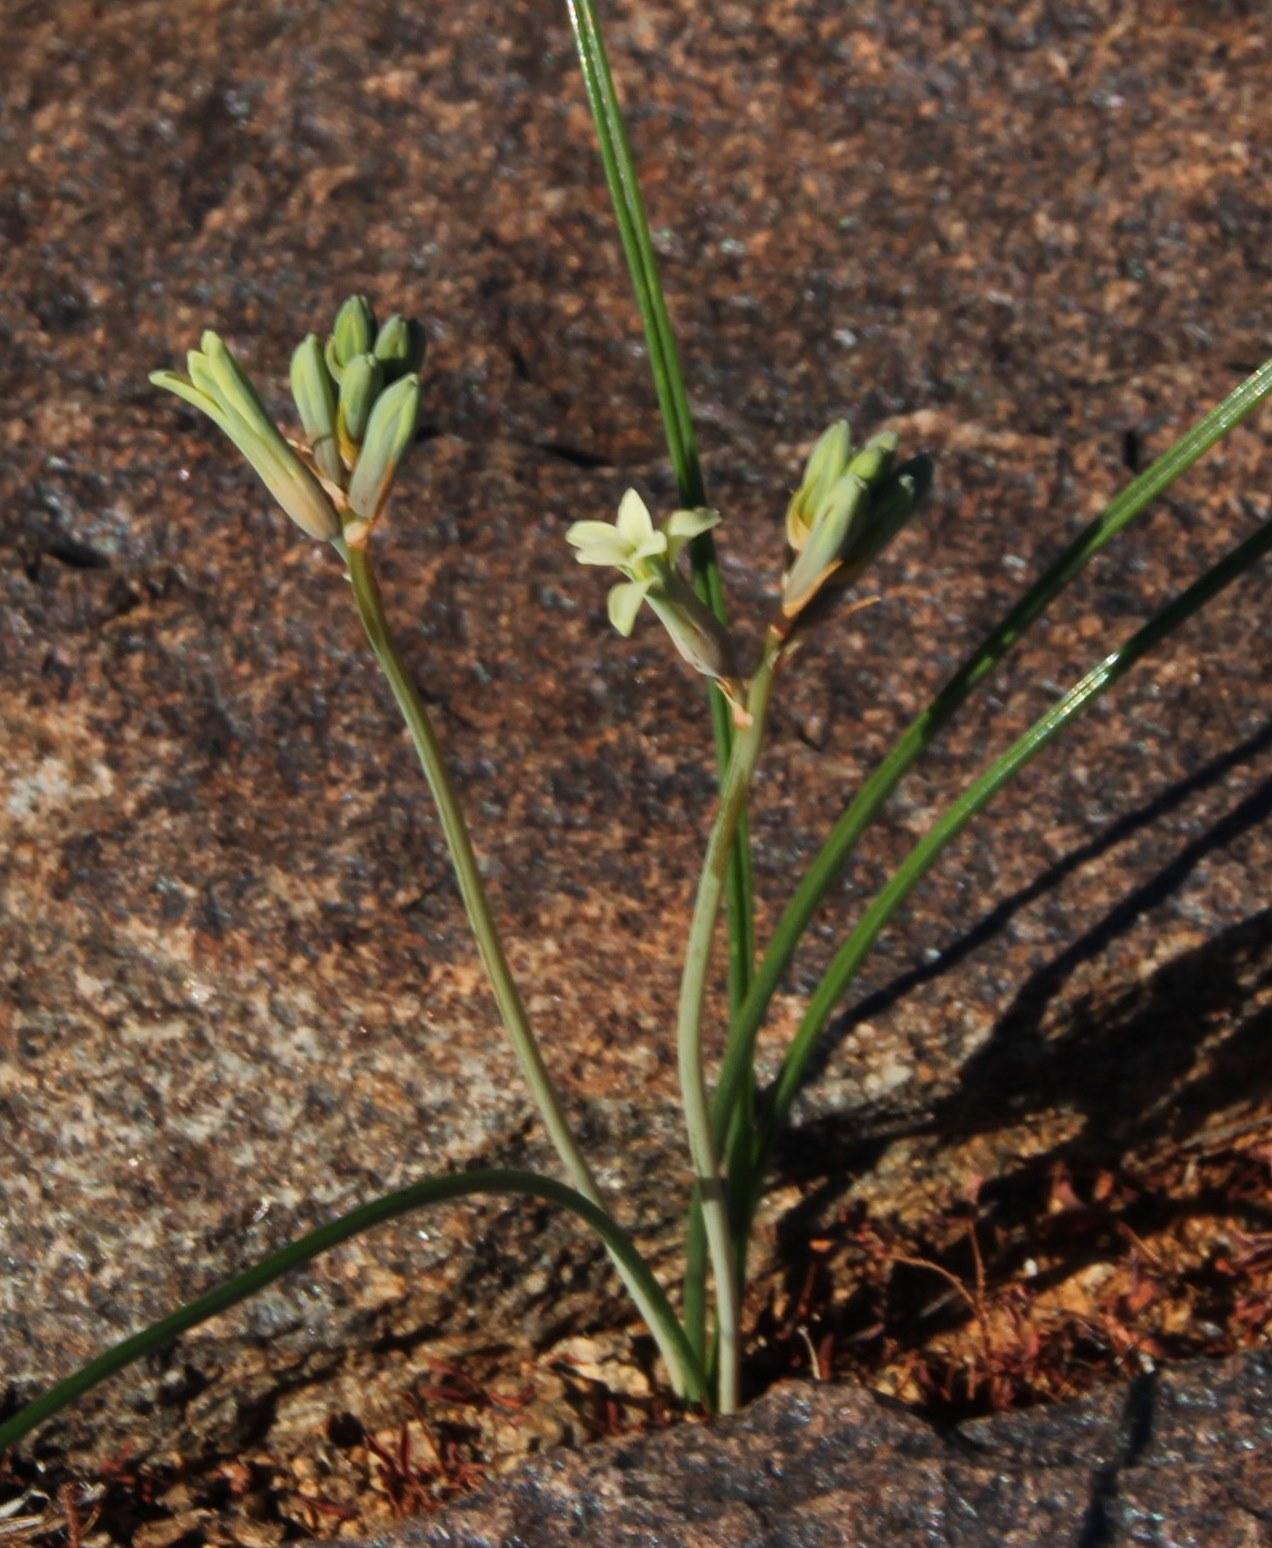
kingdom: Plantae
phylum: Tracheophyta
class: Liliopsida
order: Asparagales
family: Asparagaceae
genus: Dipcadi
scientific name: Dipcadi brevifolium
